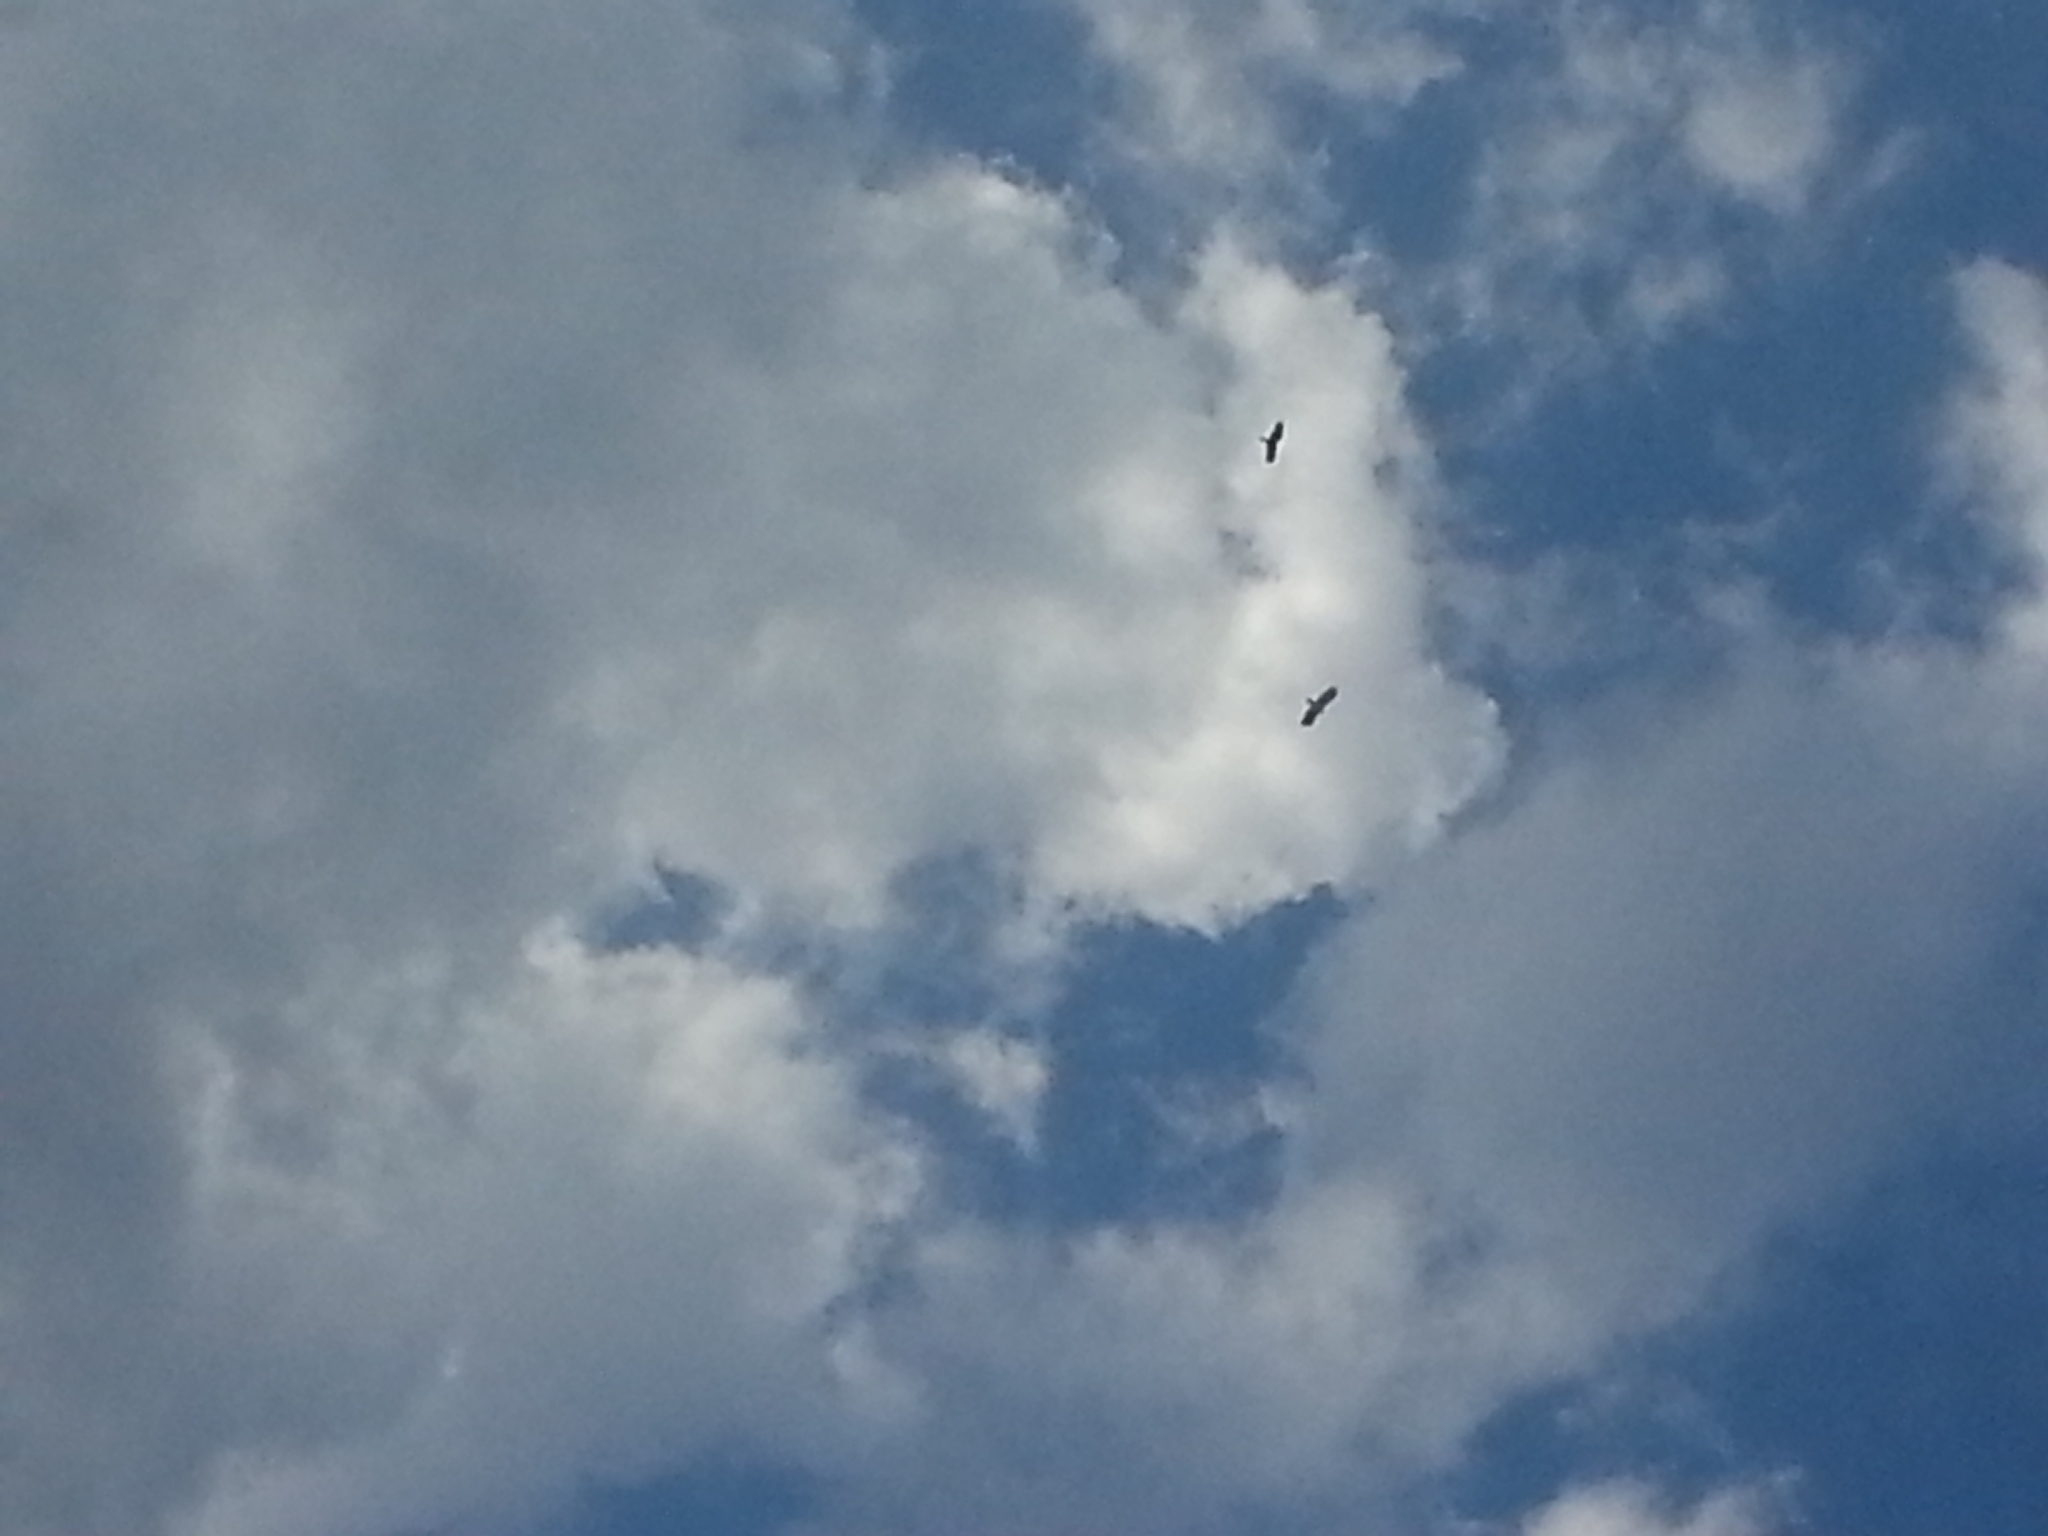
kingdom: Animalia
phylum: Chordata
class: Aves
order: Accipitriformes
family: Cathartidae
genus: Cathartes
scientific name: Cathartes aura
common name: Turkey vulture
